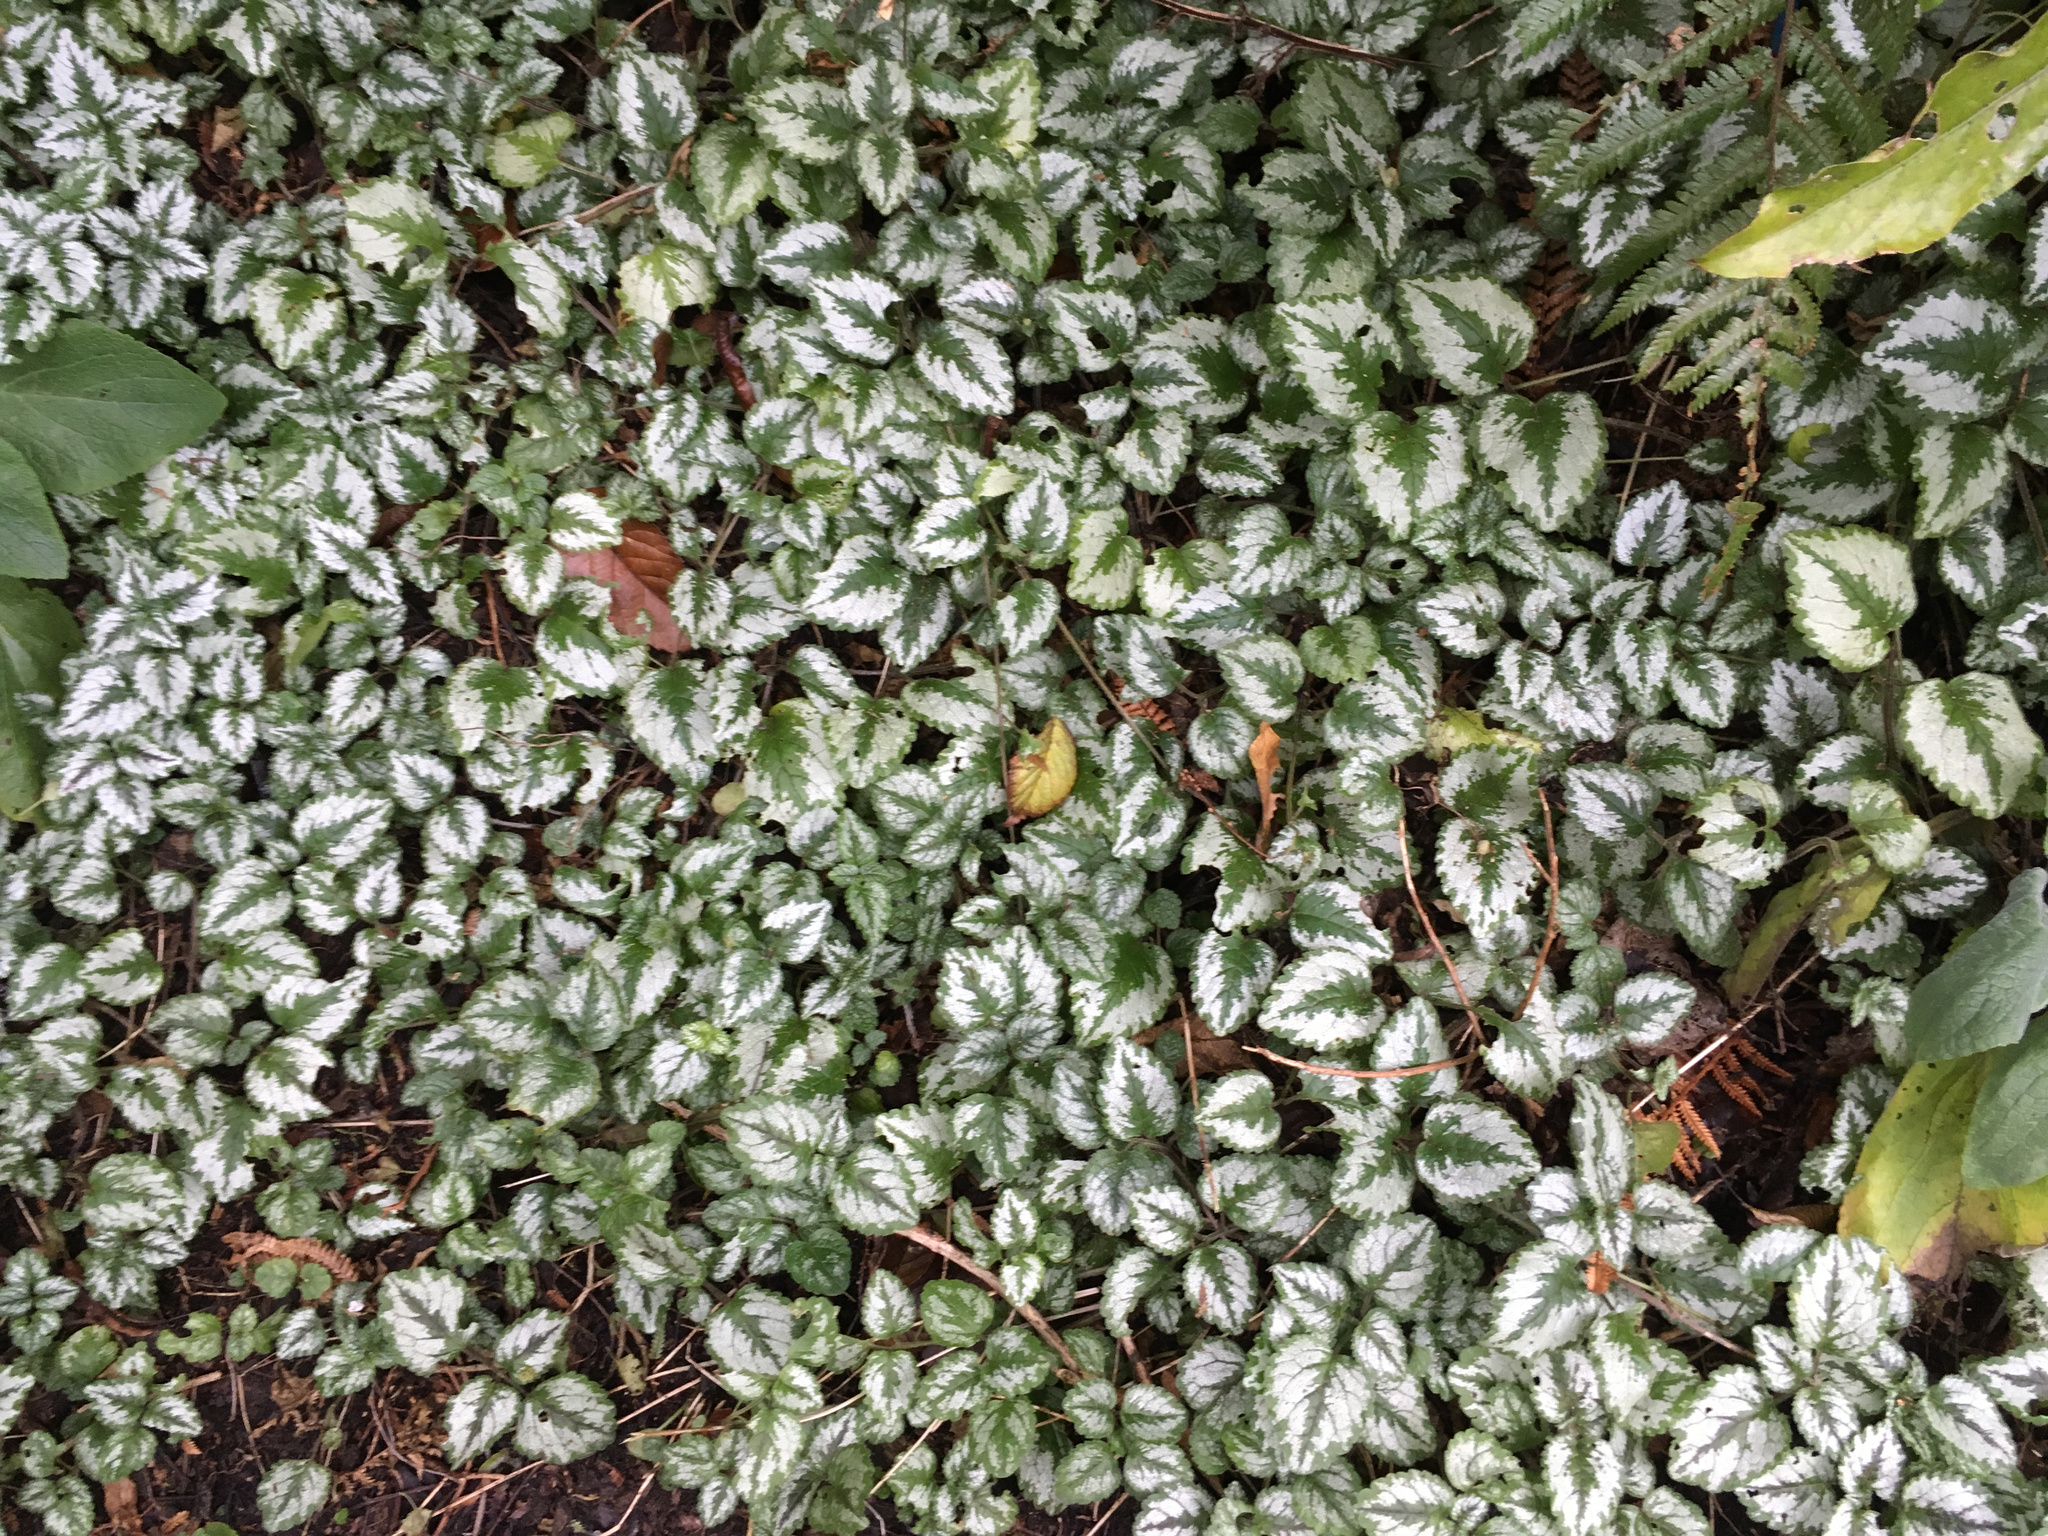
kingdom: Plantae
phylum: Tracheophyta
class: Magnoliopsida
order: Lamiales
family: Lamiaceae
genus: Lamium
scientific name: Lamium galeobdolon
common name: Yellow archangel
